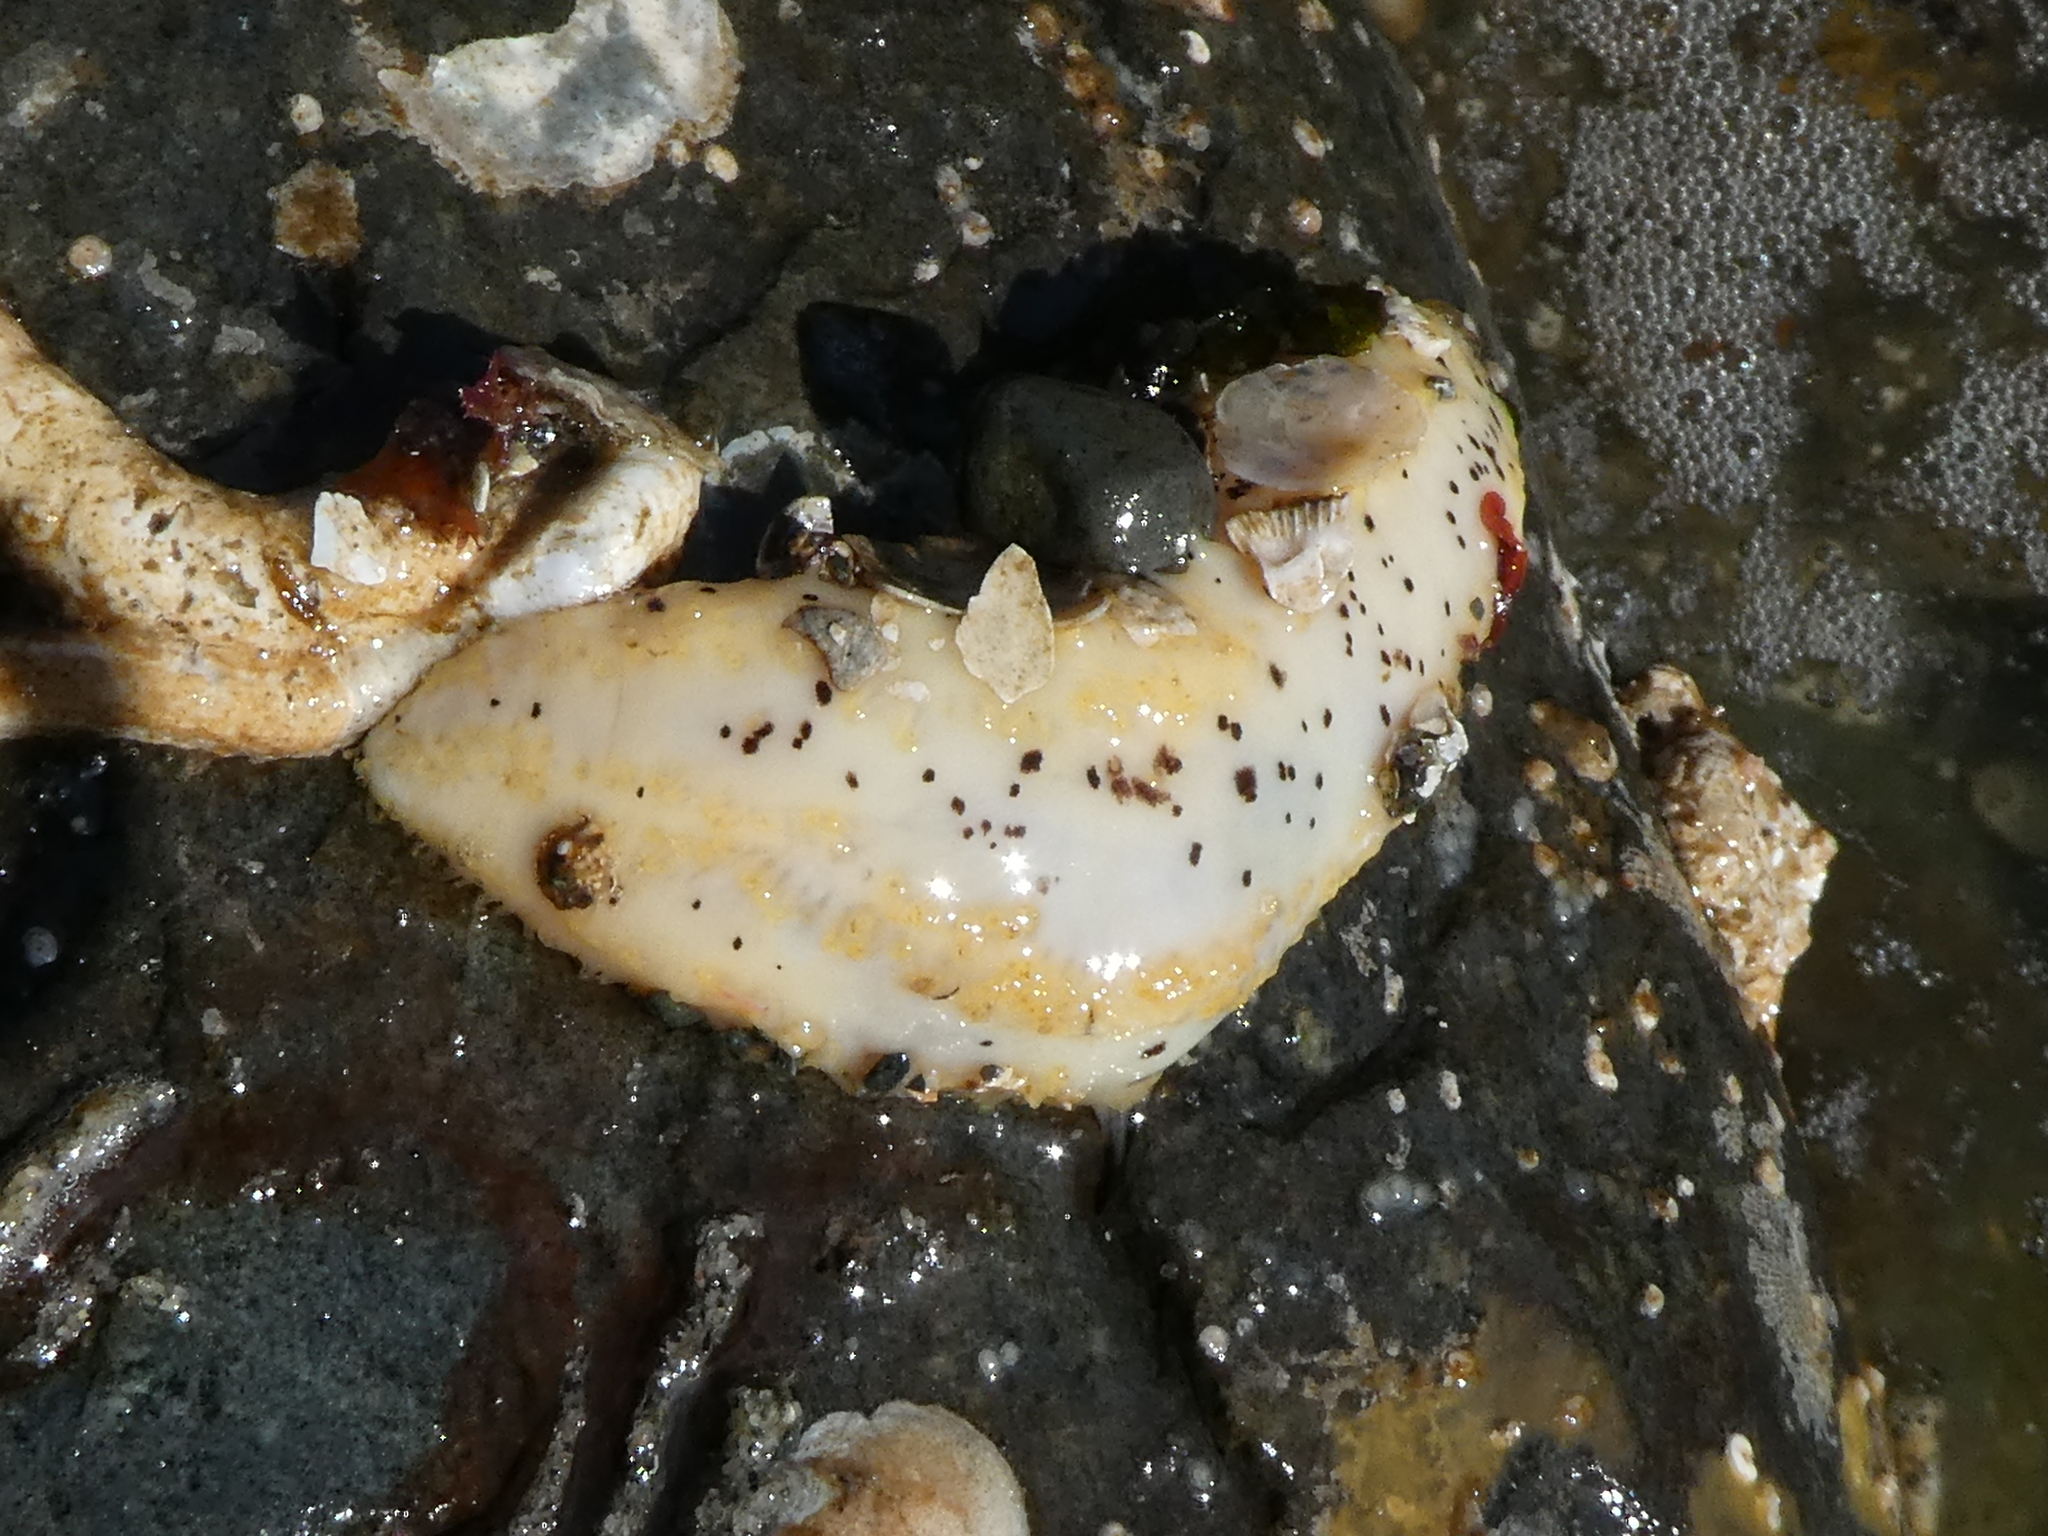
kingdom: Animalia
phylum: Echinodermata
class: Holothuroidea
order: Dendrochirotida
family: Cucumariidae
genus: Cucumaria
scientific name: Cucumaria piperata
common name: Peppered sea cucumber
